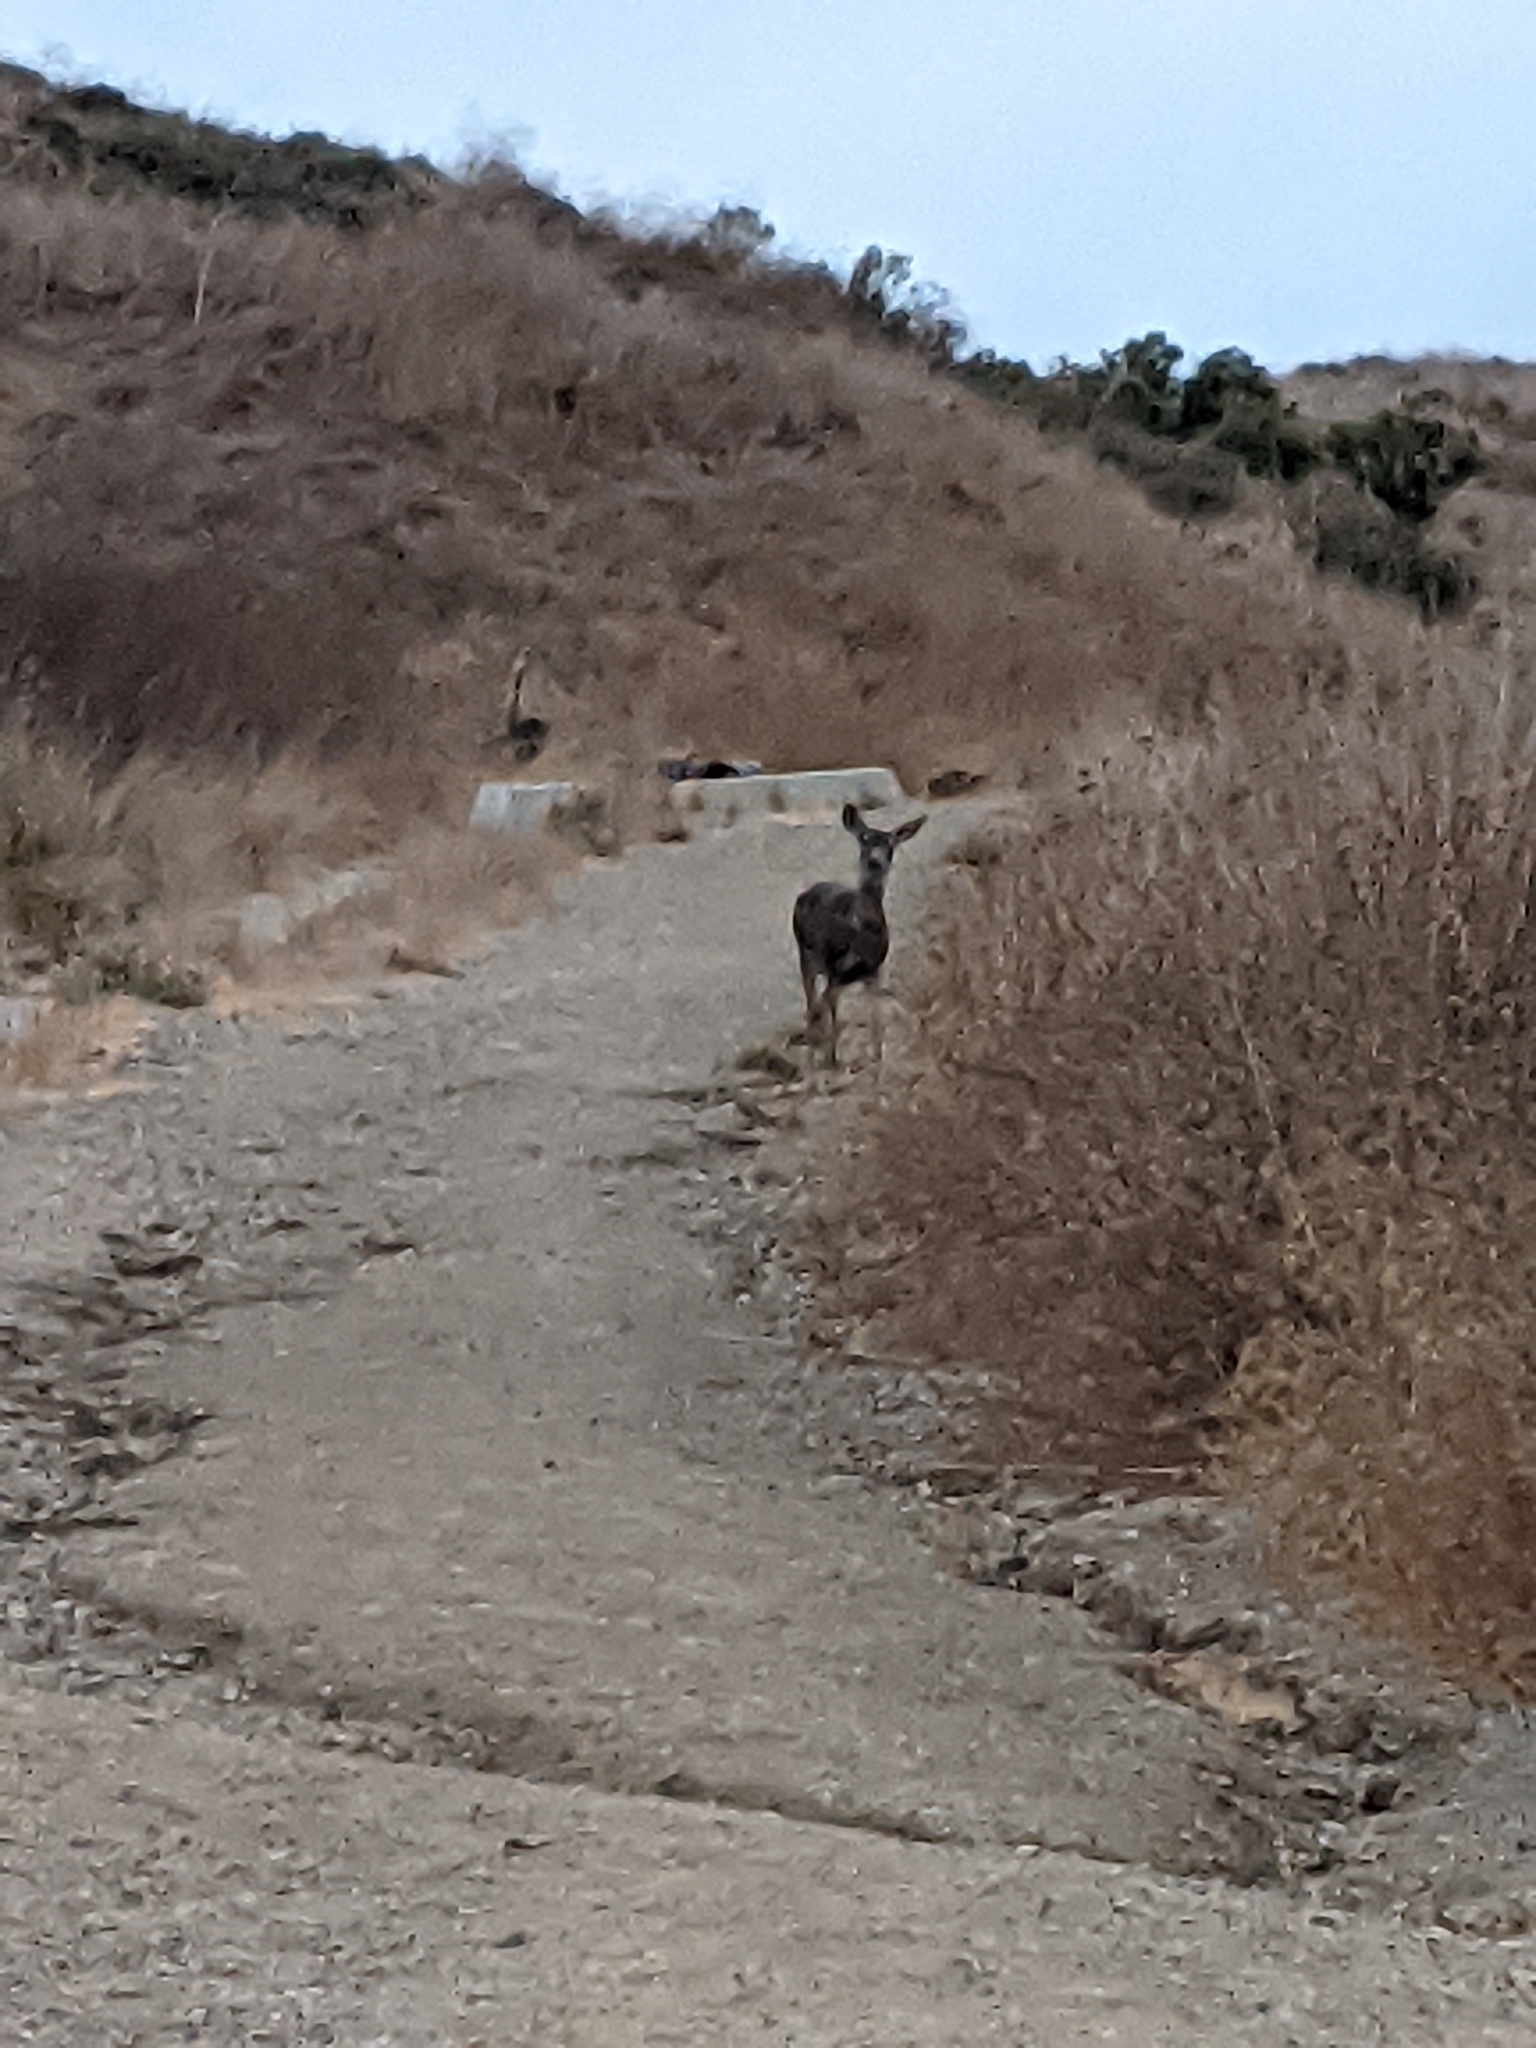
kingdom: Animalia
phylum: Chordata
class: Mammalia
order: Artiodactyla
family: Cervidae
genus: Odocoileus
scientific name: Odocoileus hemionus
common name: Mule deer
